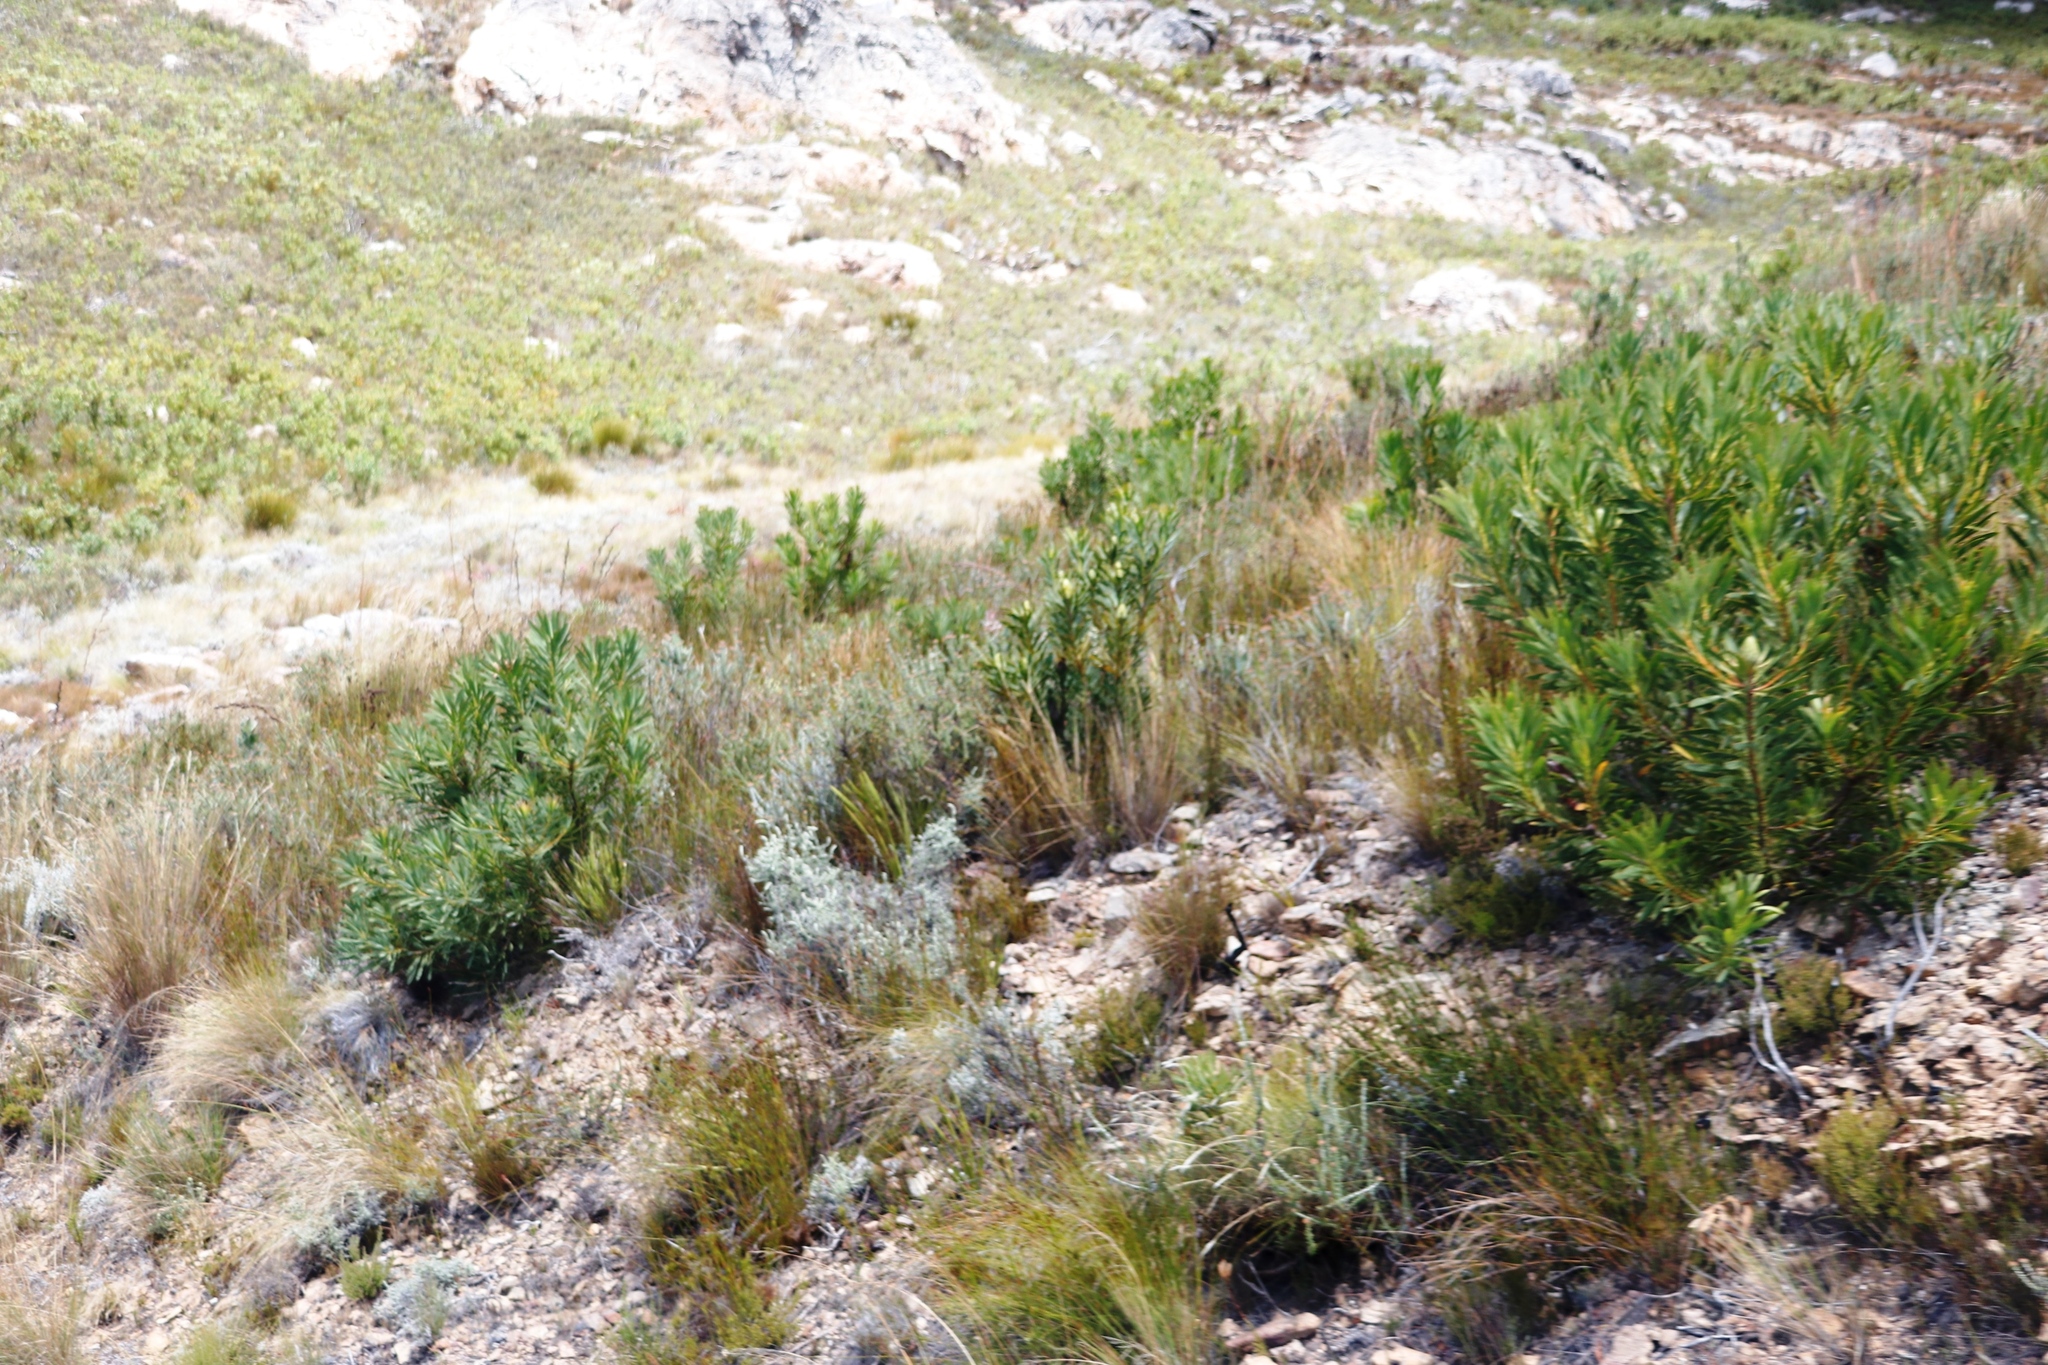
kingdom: Plantae
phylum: Tracheophyta
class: Magnoliopsida
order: Proteales
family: Proteaceae
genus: Protea
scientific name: Protea repens
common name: Sugarbush
